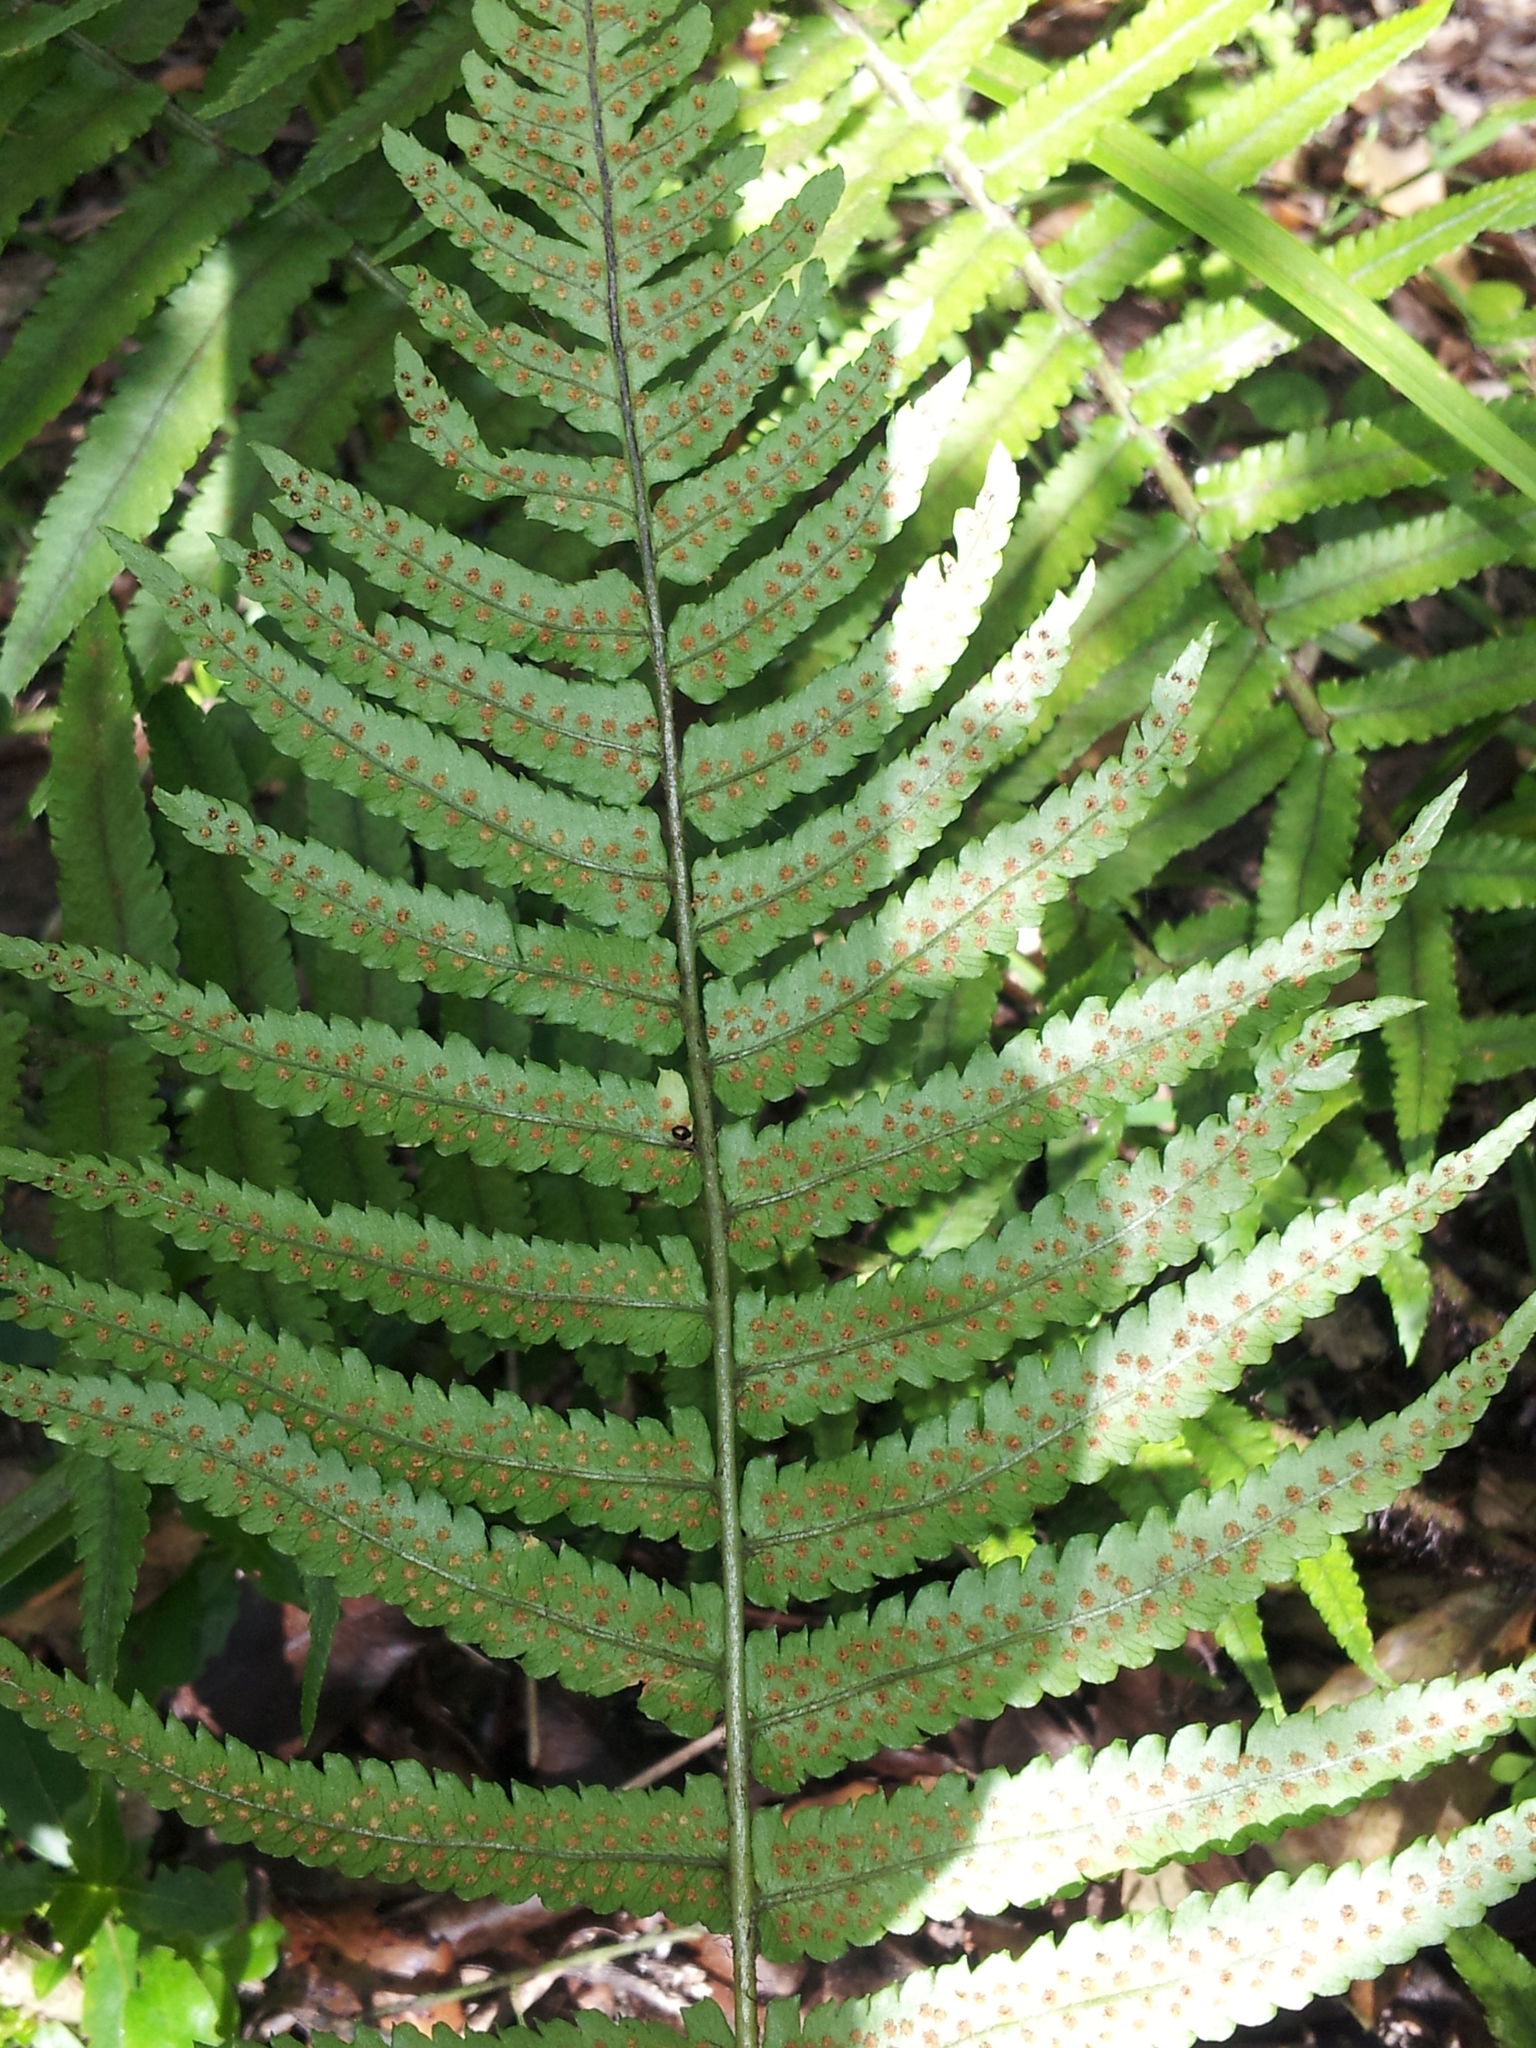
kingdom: Plantae
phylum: Tracheophyta
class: Polypodiopsida
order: Polypodiales
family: Dryopteridaceae
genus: Dryopteris
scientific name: Dryopteris cycadina
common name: Shaggy wood fern
